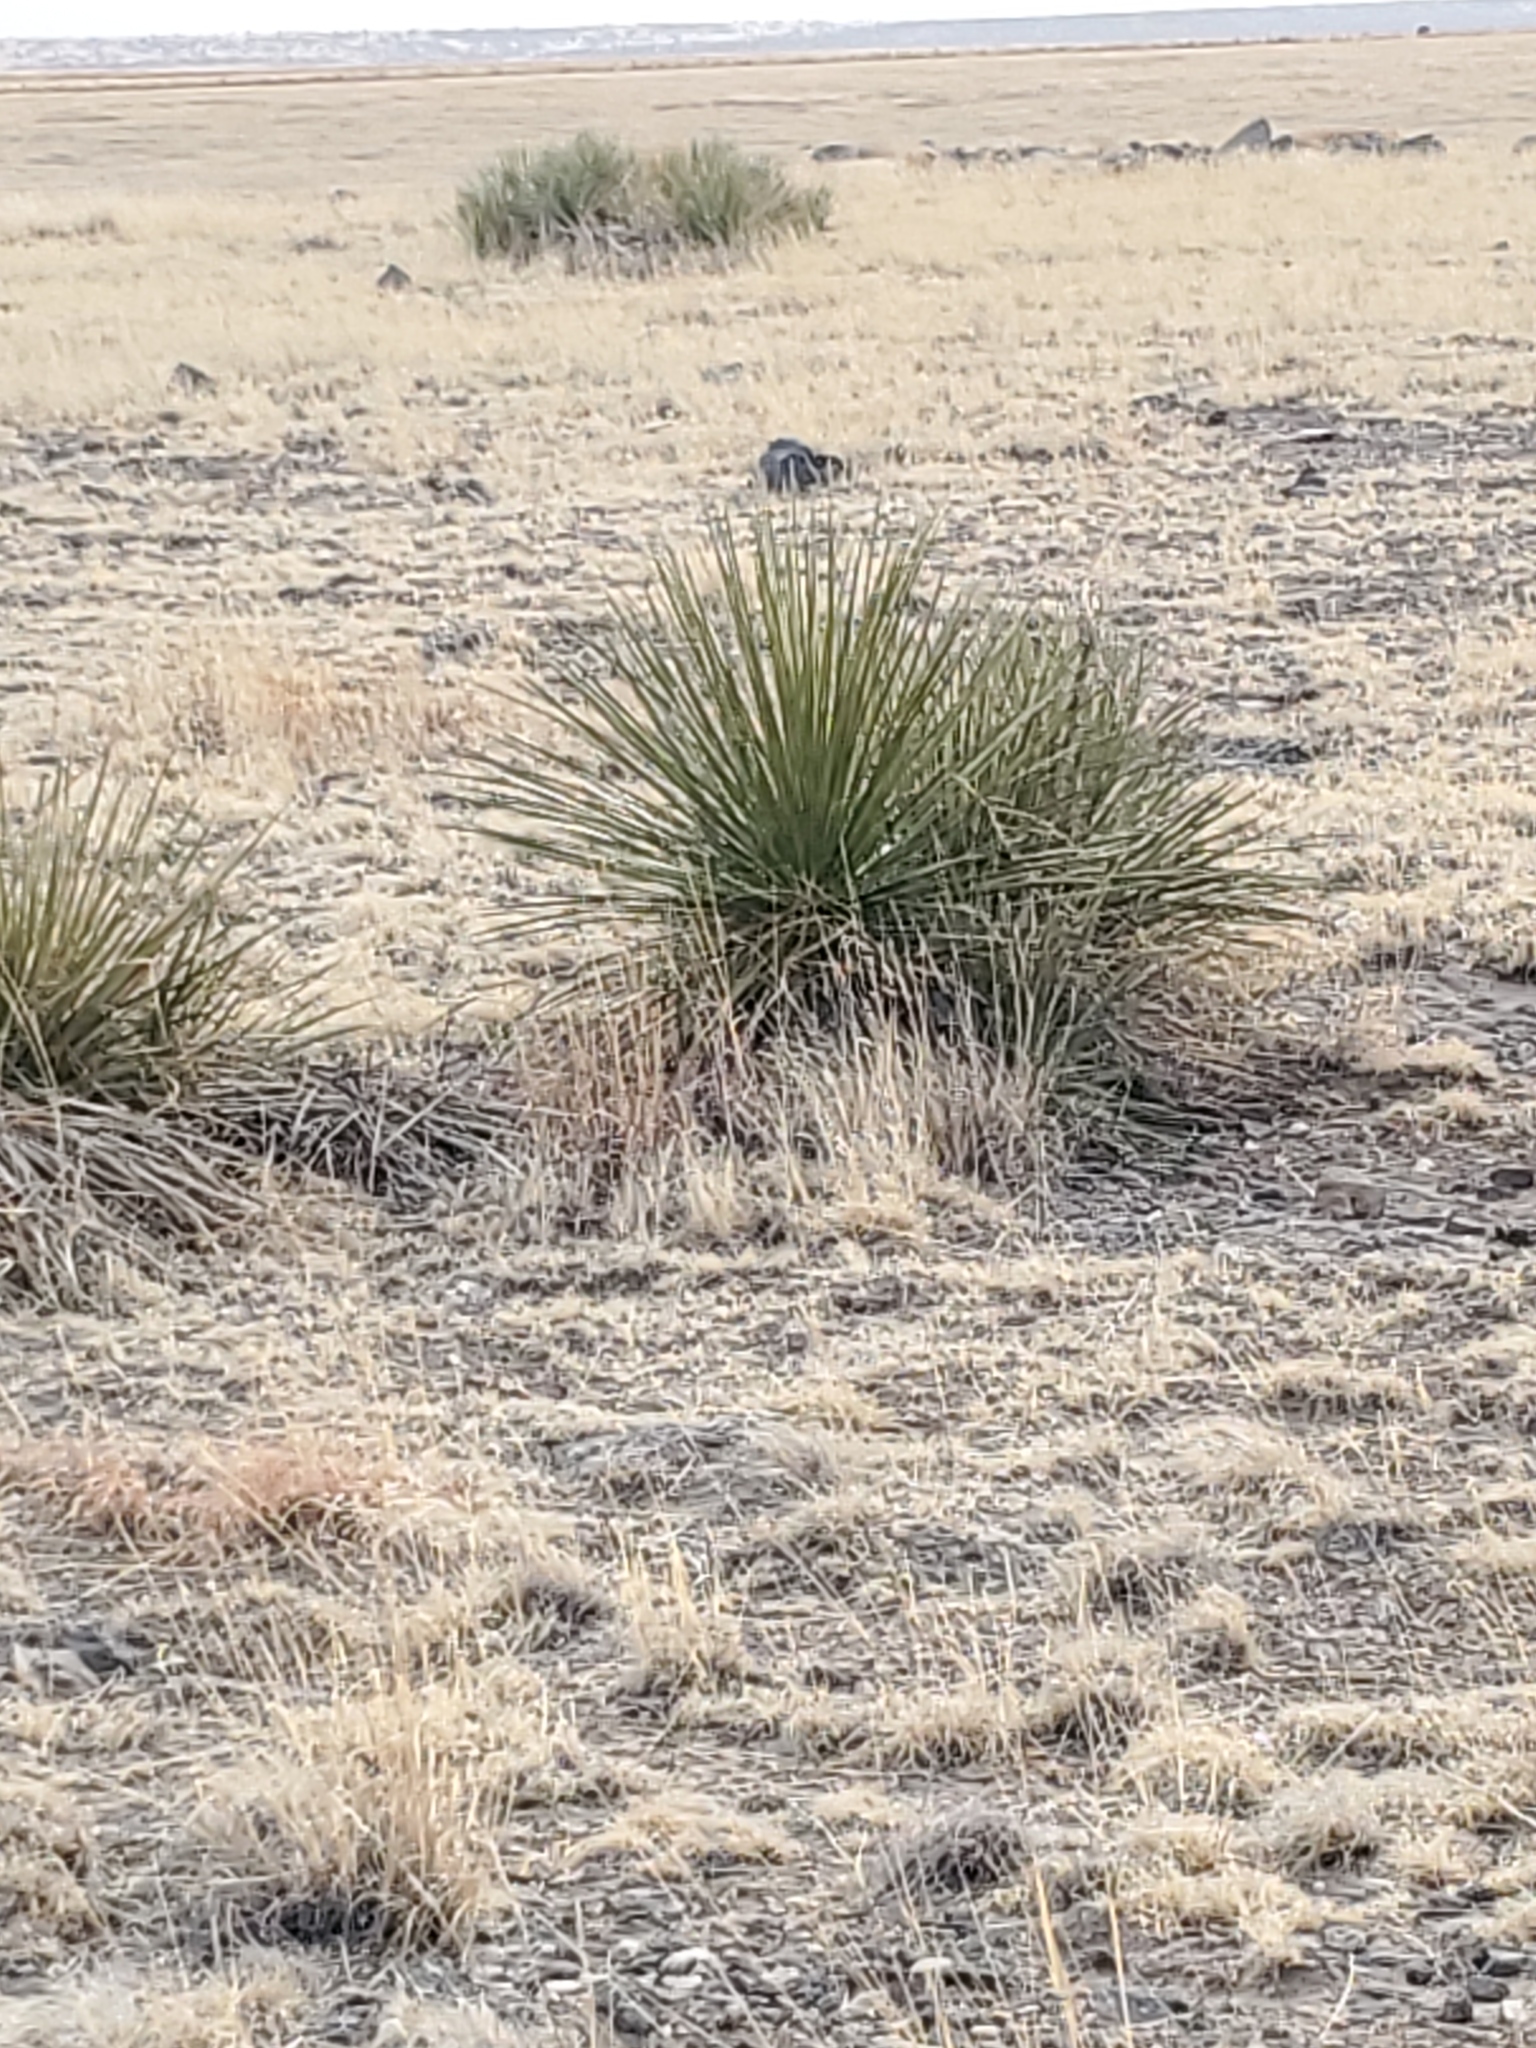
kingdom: Plantae
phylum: Tracheophyta
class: Liliopsida
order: Asparagales
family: Asparagaceae
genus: Yucca
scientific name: Yucca glauca
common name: Great plains yucca
